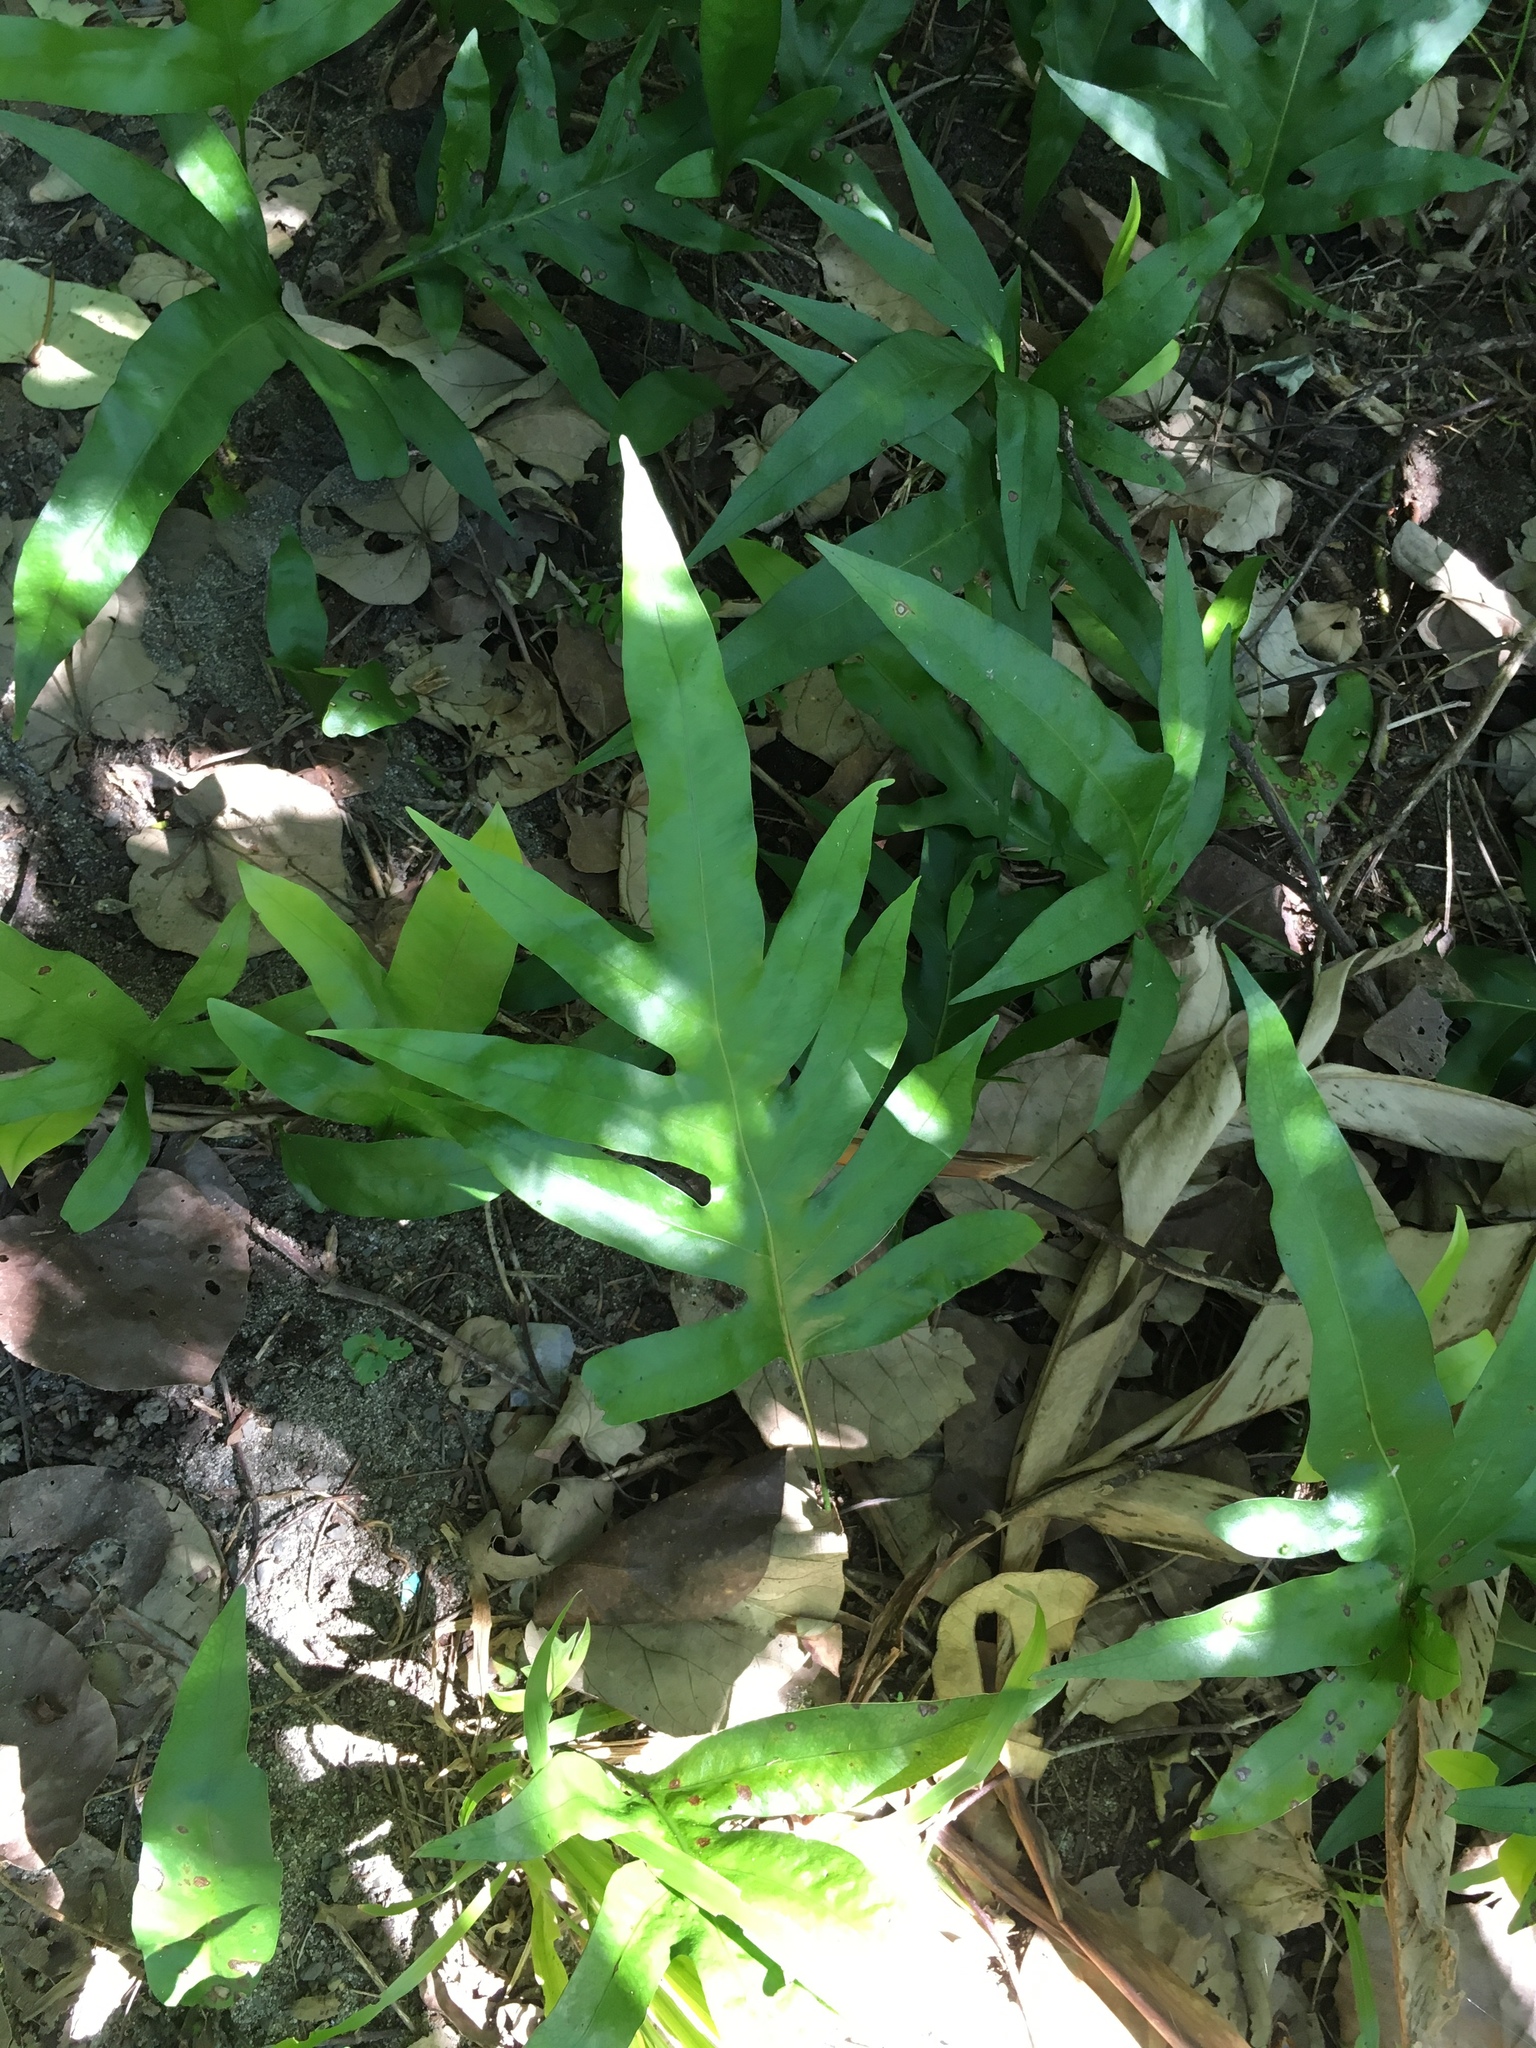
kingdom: Plantae
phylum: Tracheophyta
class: Polypodiopsida
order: Polypodiales
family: Polypodiaceae
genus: Microsorum
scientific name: Microsorum scolopendria
